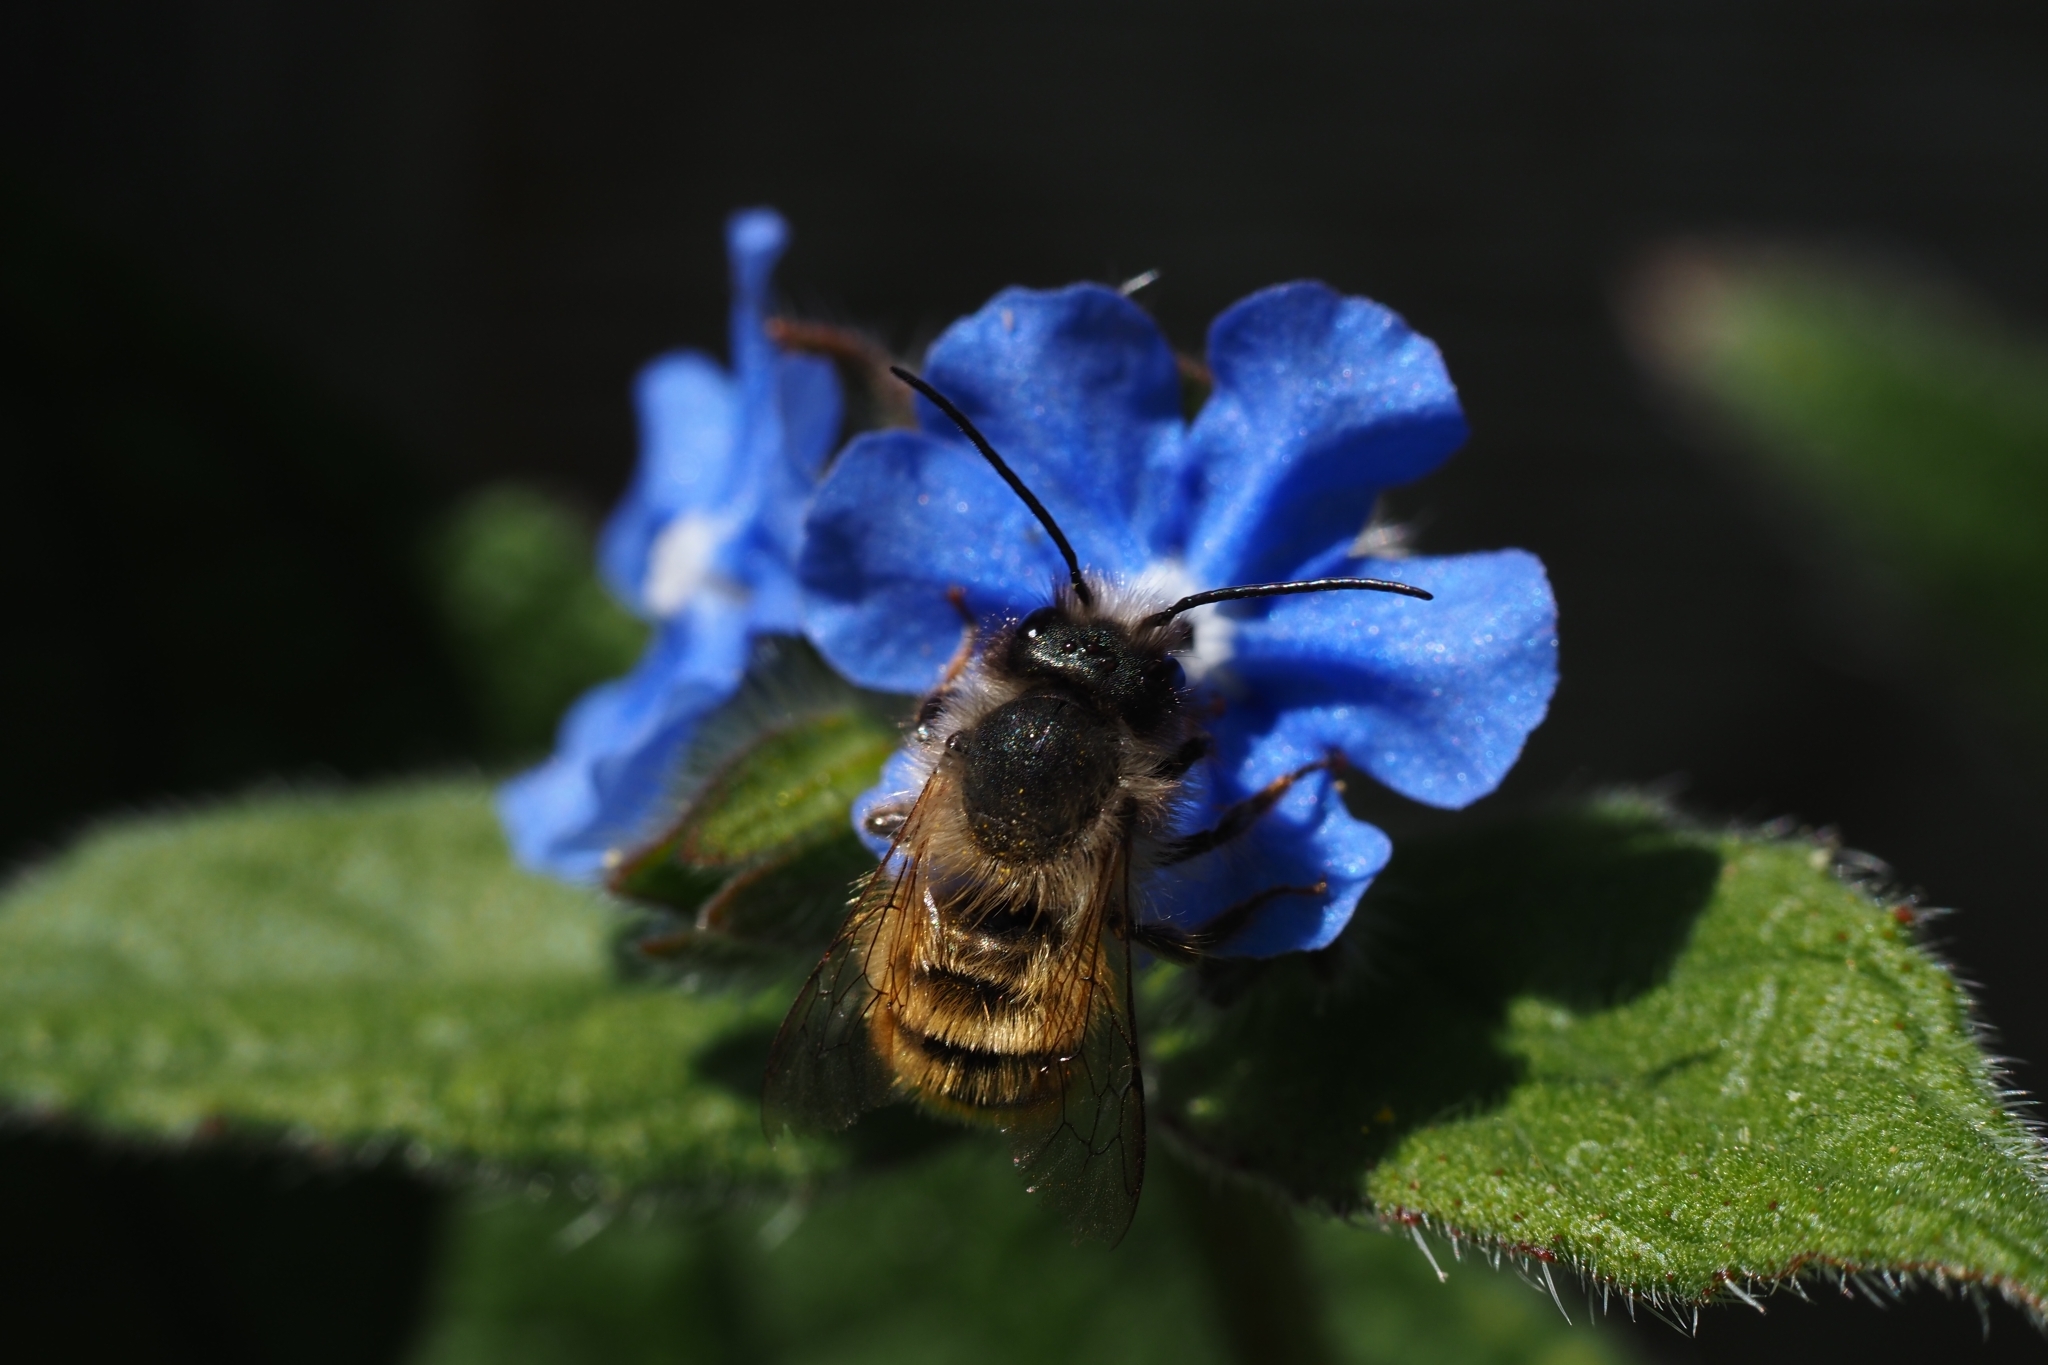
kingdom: Animalia
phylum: Arthropoda
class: Insecta
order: Hymenoptera
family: Megachilidae
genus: Osmia
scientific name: Osmia bicornis
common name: Red mason bee
